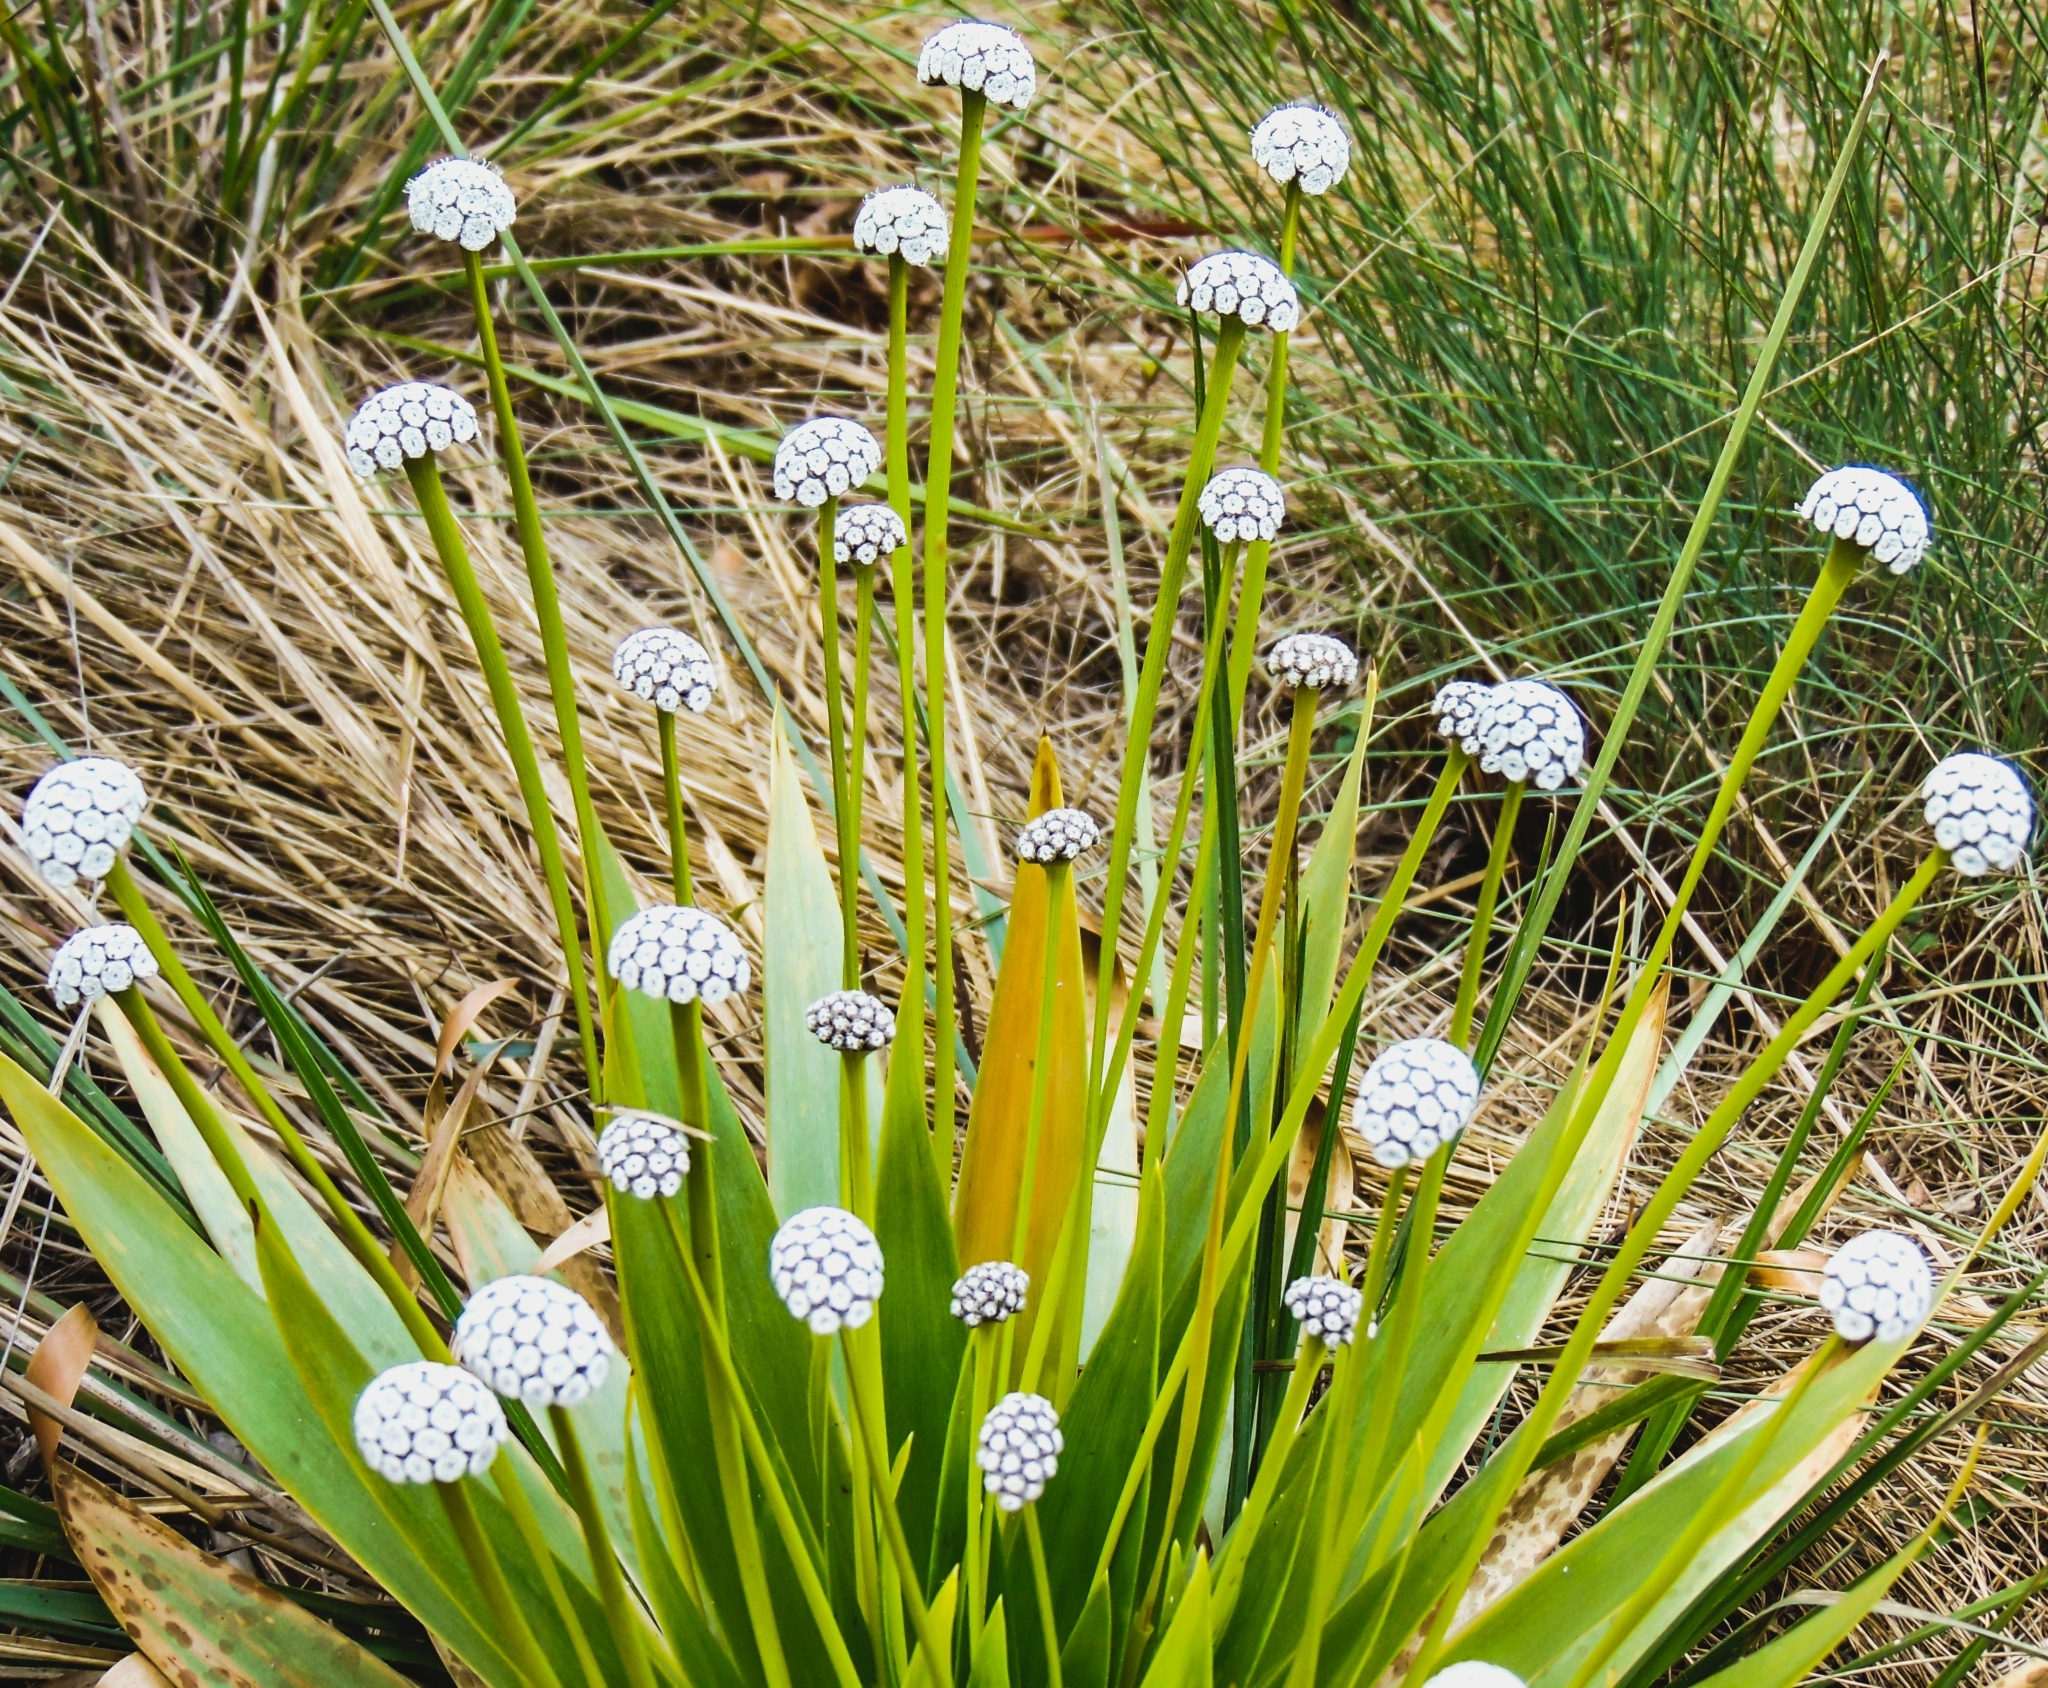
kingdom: Plantae
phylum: Tracheophyta
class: Liliopsida
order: Poales
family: Eriocaulaceae
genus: Paepalanthus
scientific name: Paepalanthus lundii
